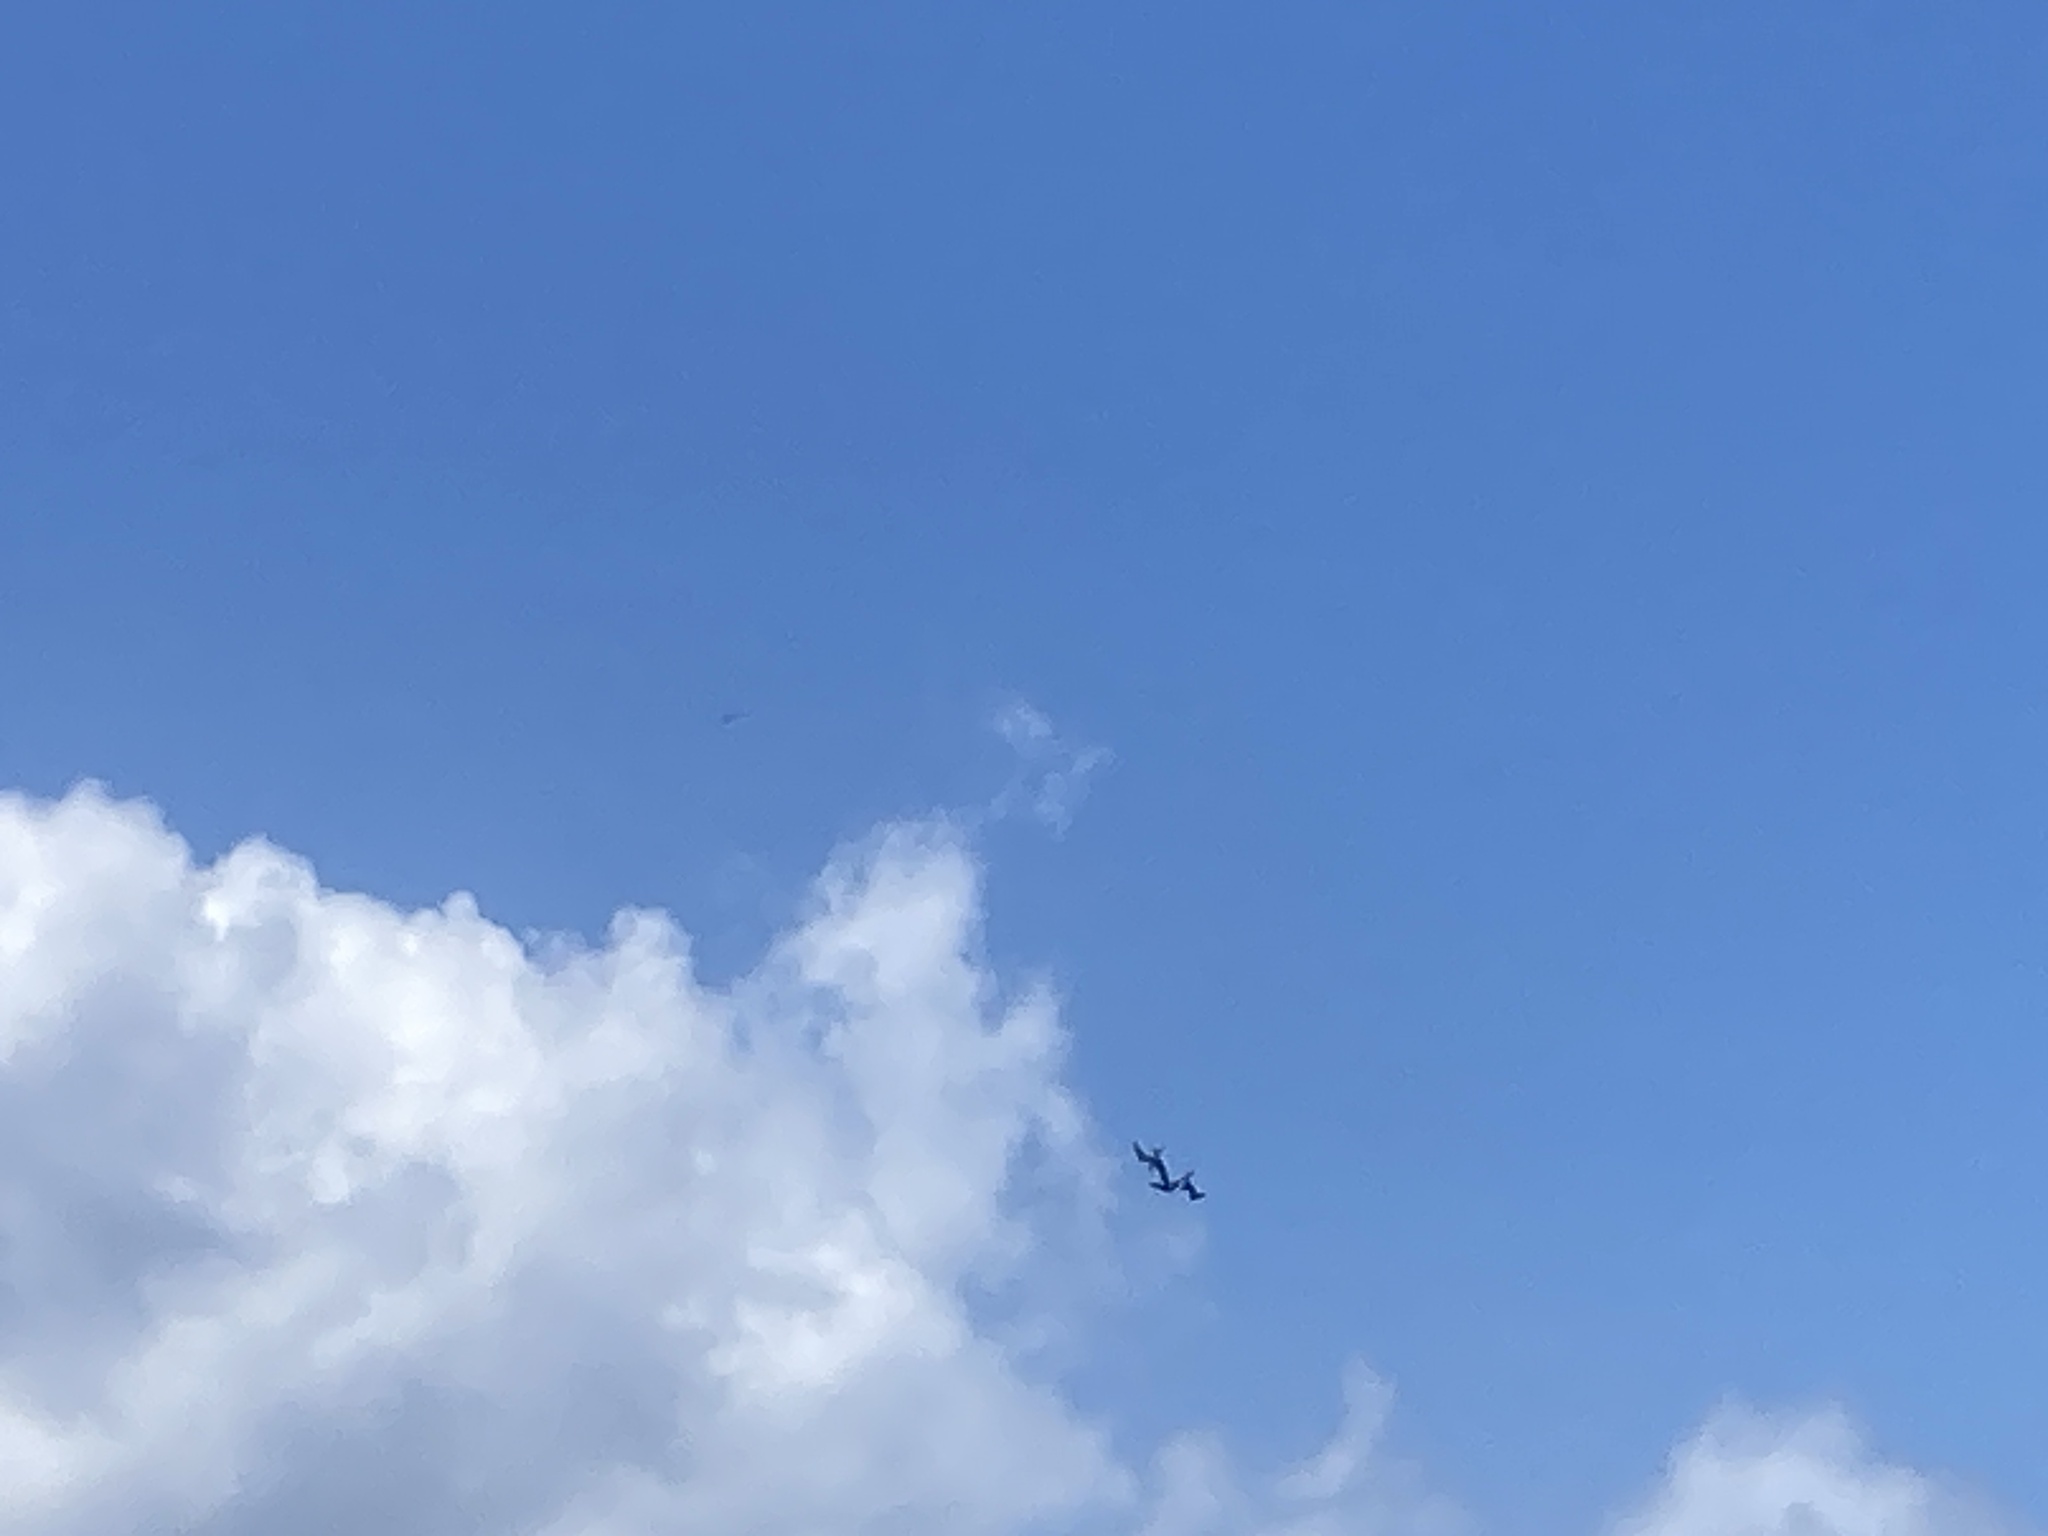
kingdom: Animalia
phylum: Chordata
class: Aves
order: Suliformes
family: Fregatidae
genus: Fregata
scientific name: Fregata magnificens
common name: Magnificent frigatebird
